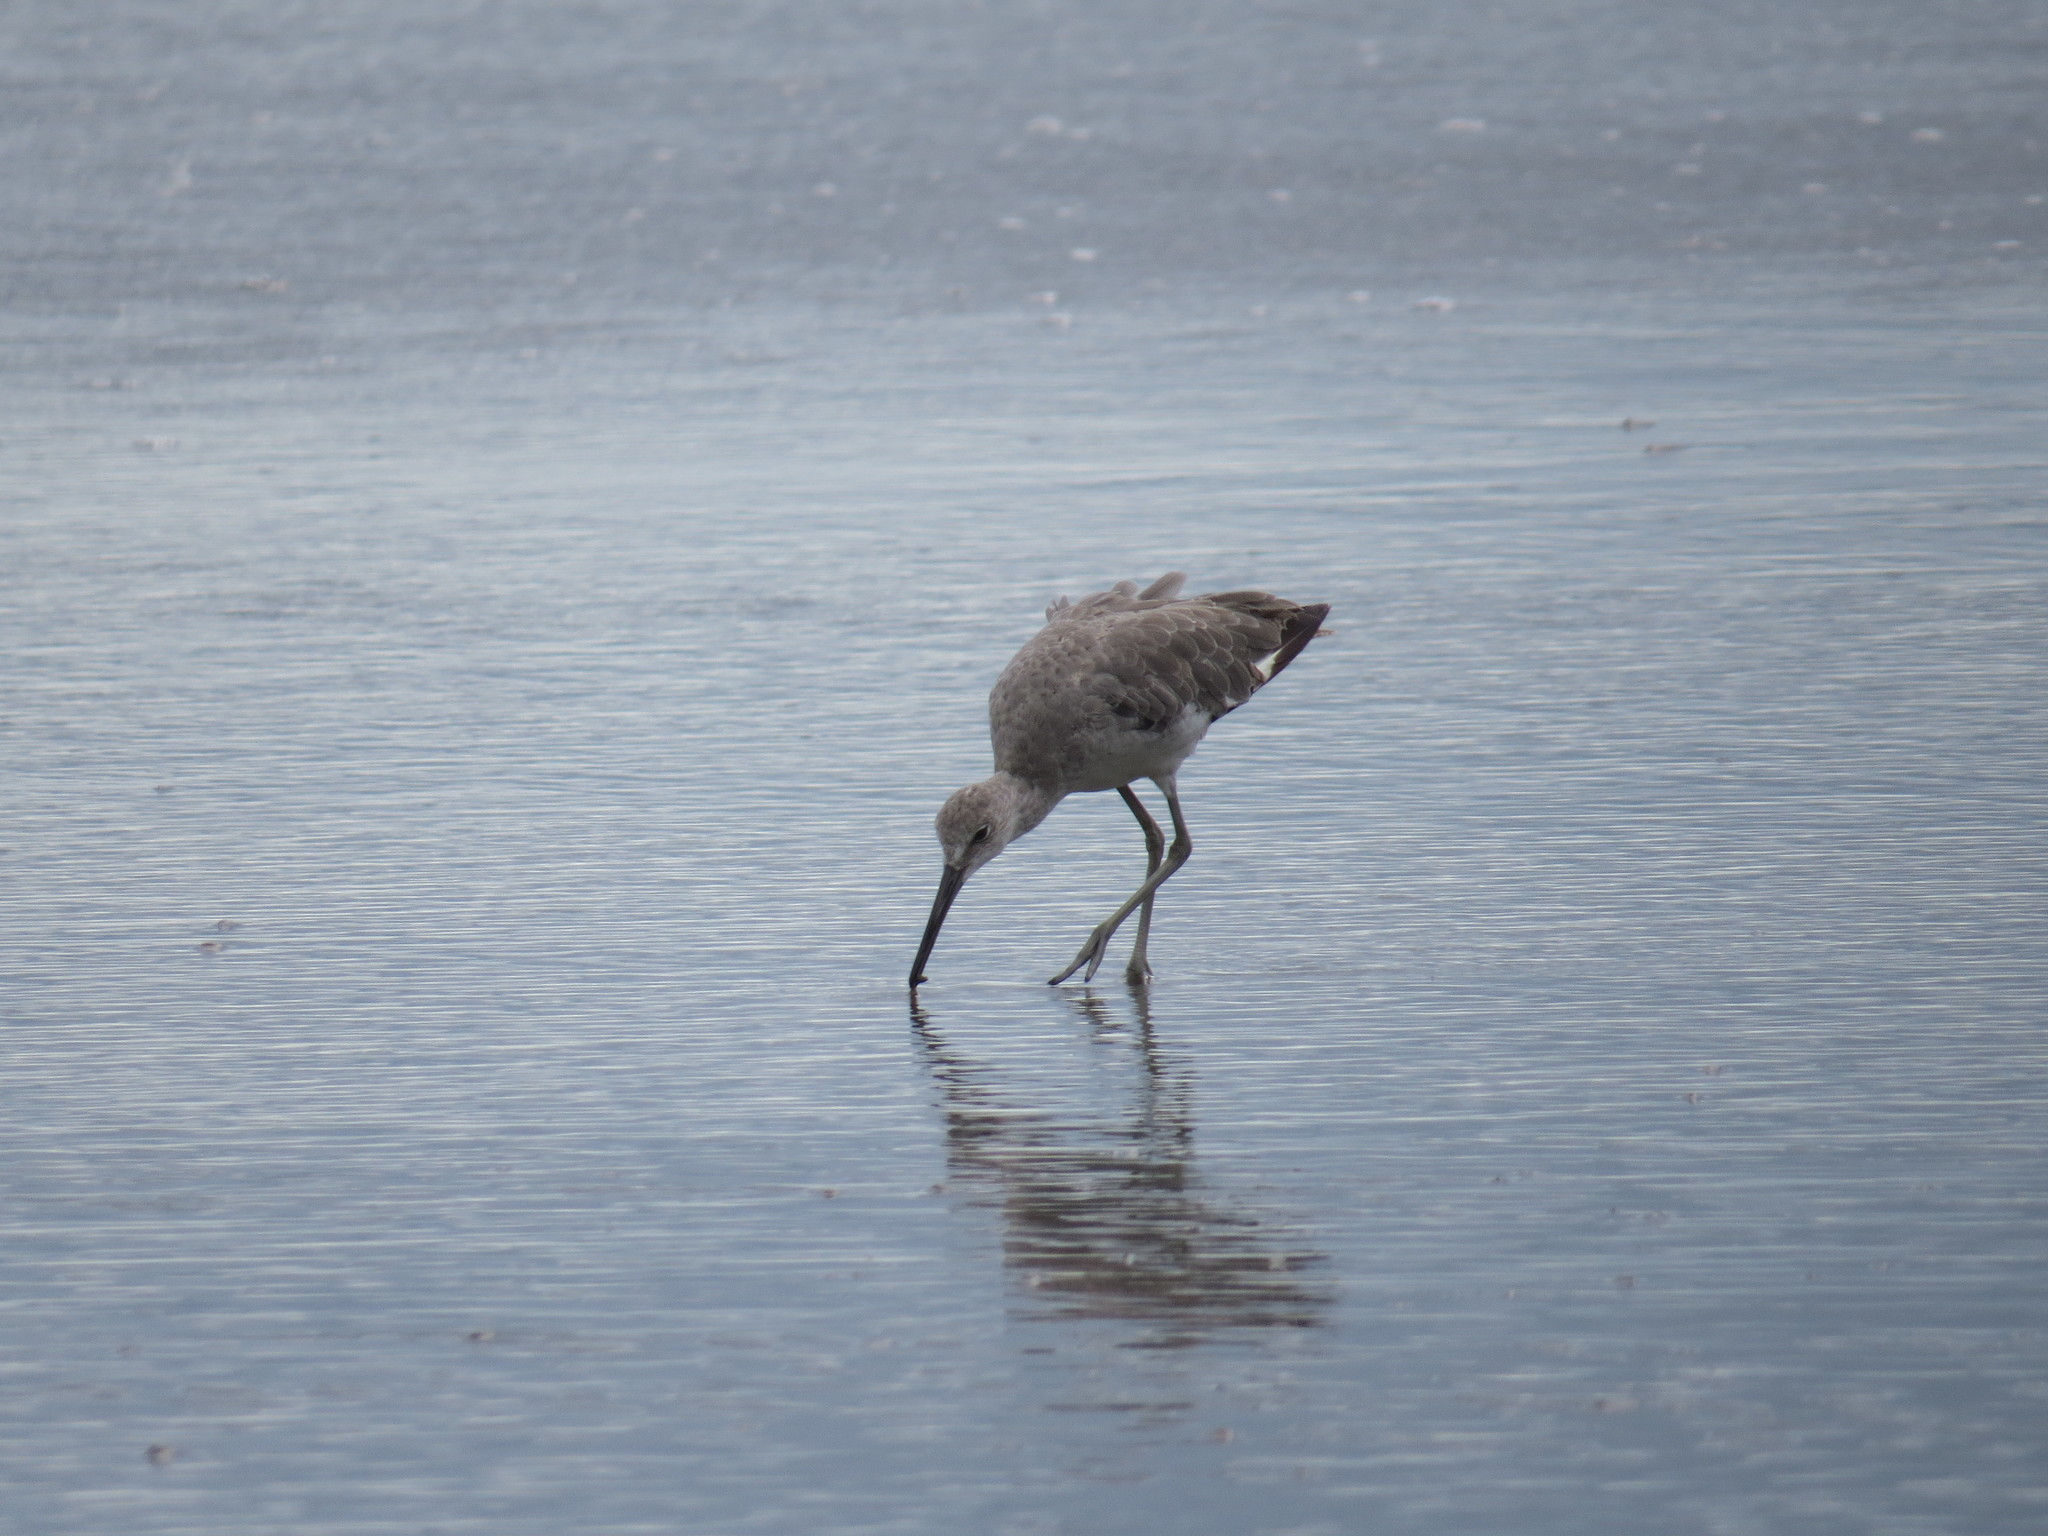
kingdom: Animalia
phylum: Chordata
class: Aves
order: Charadriiformes
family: Scolopacidae
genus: Tringa
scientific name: Tringa semipalmata
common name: Willet
